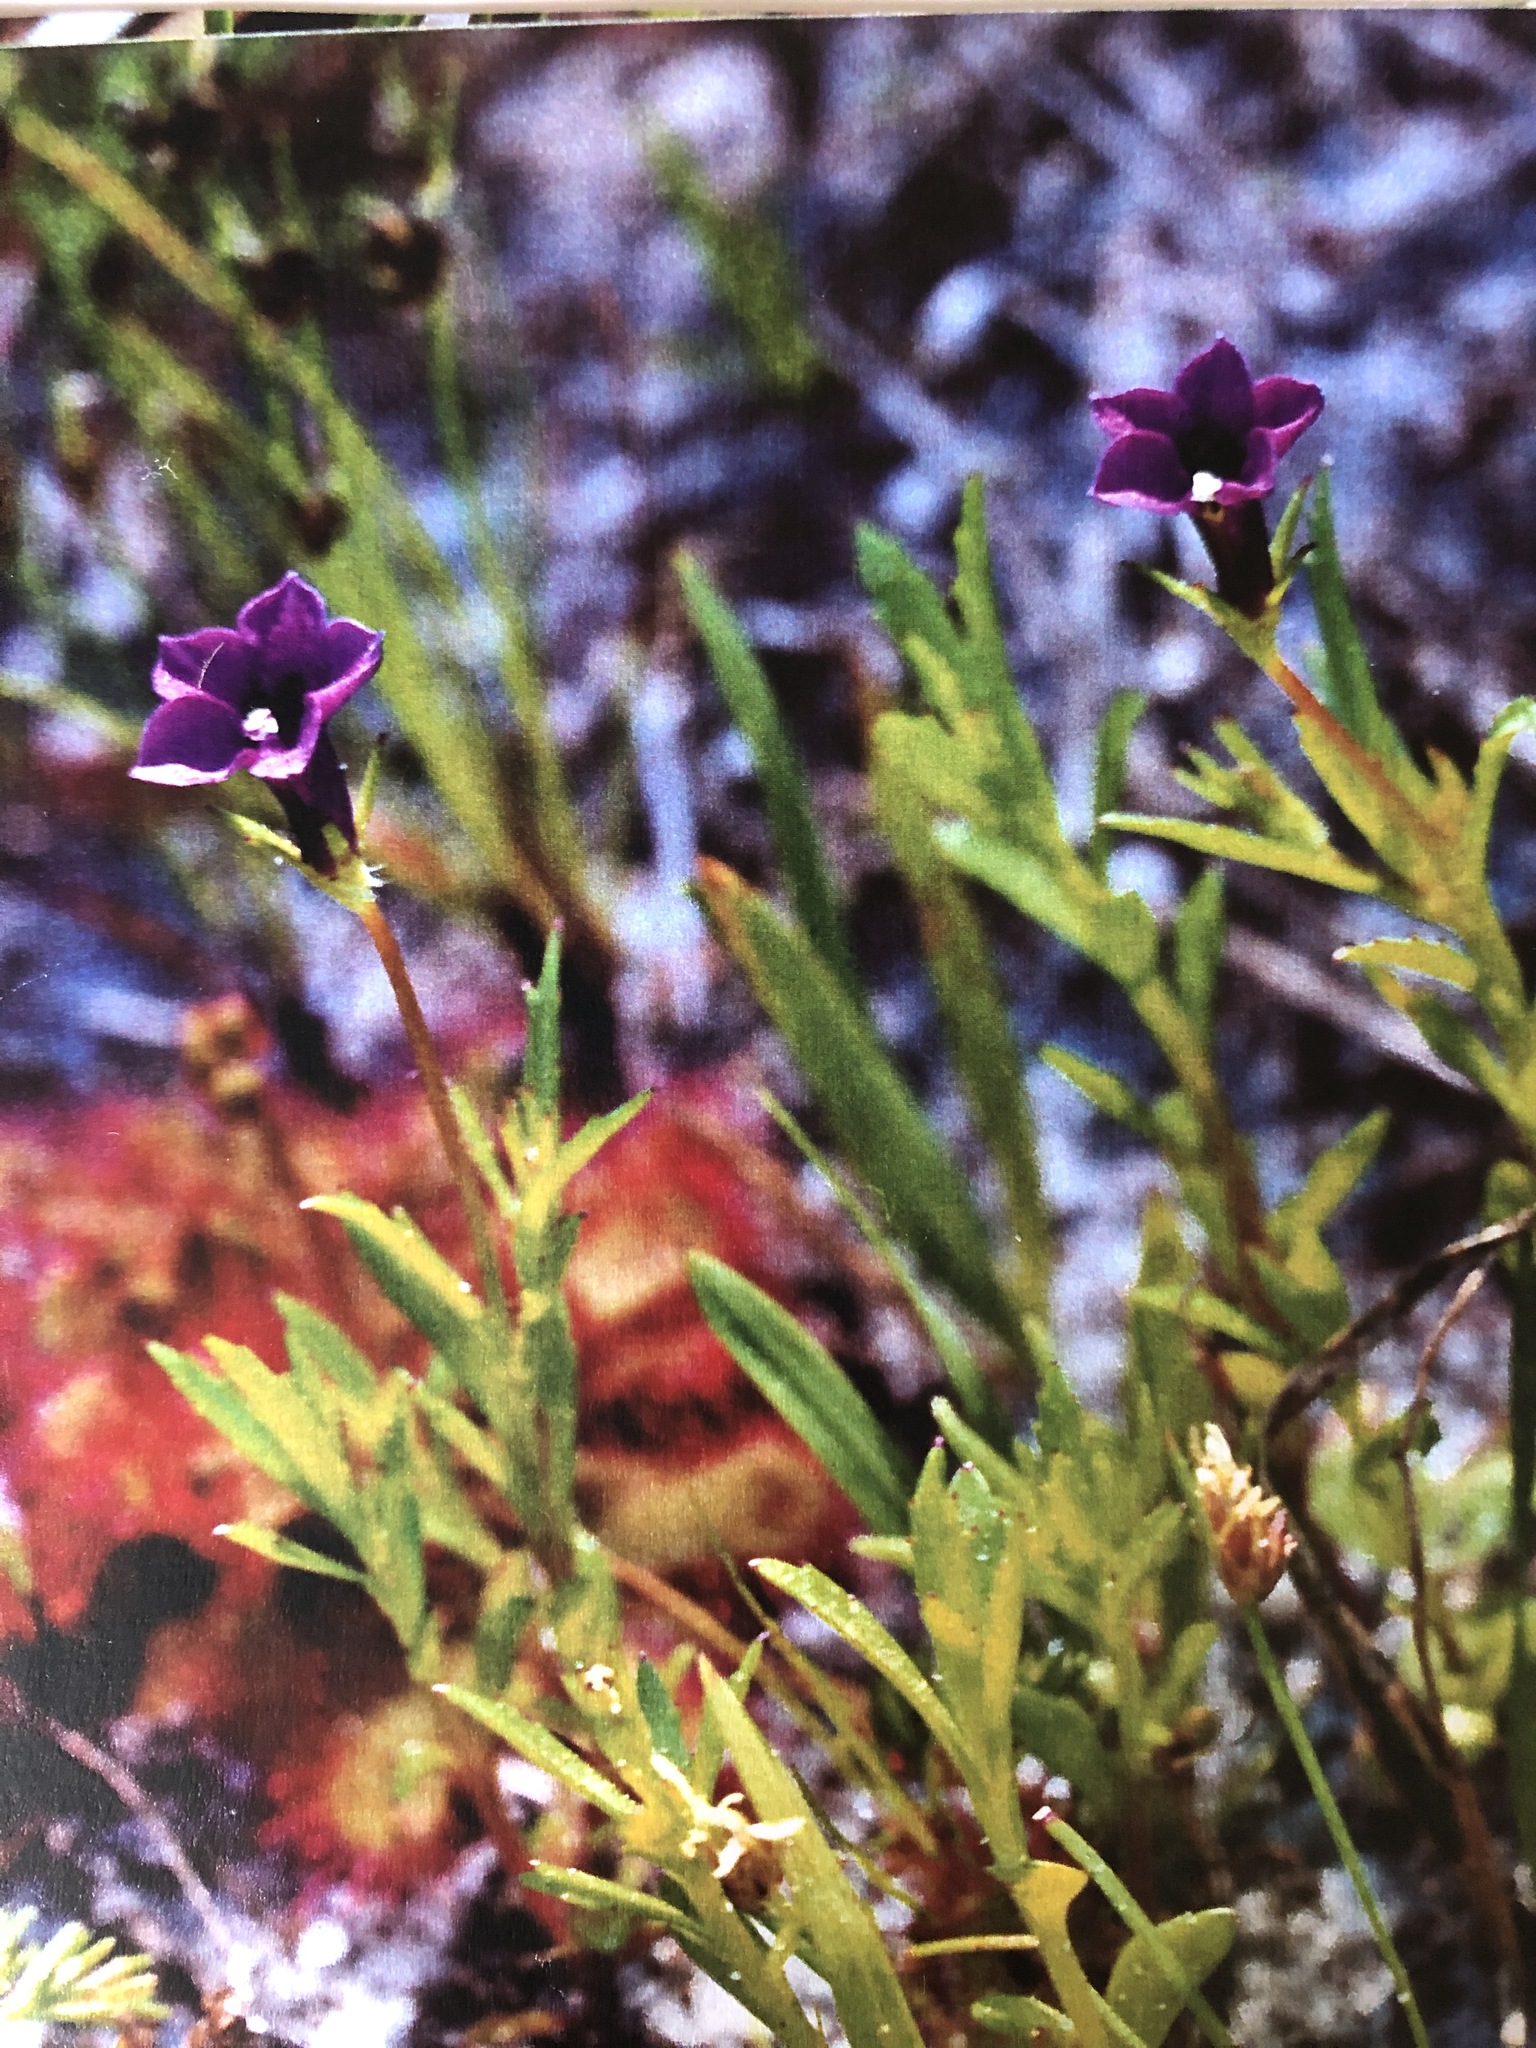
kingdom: Plantae
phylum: Tracheophyta
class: Magnoliopsida
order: Asterales
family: Campanulaceae
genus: Monopsis
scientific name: Monopsis debilis
